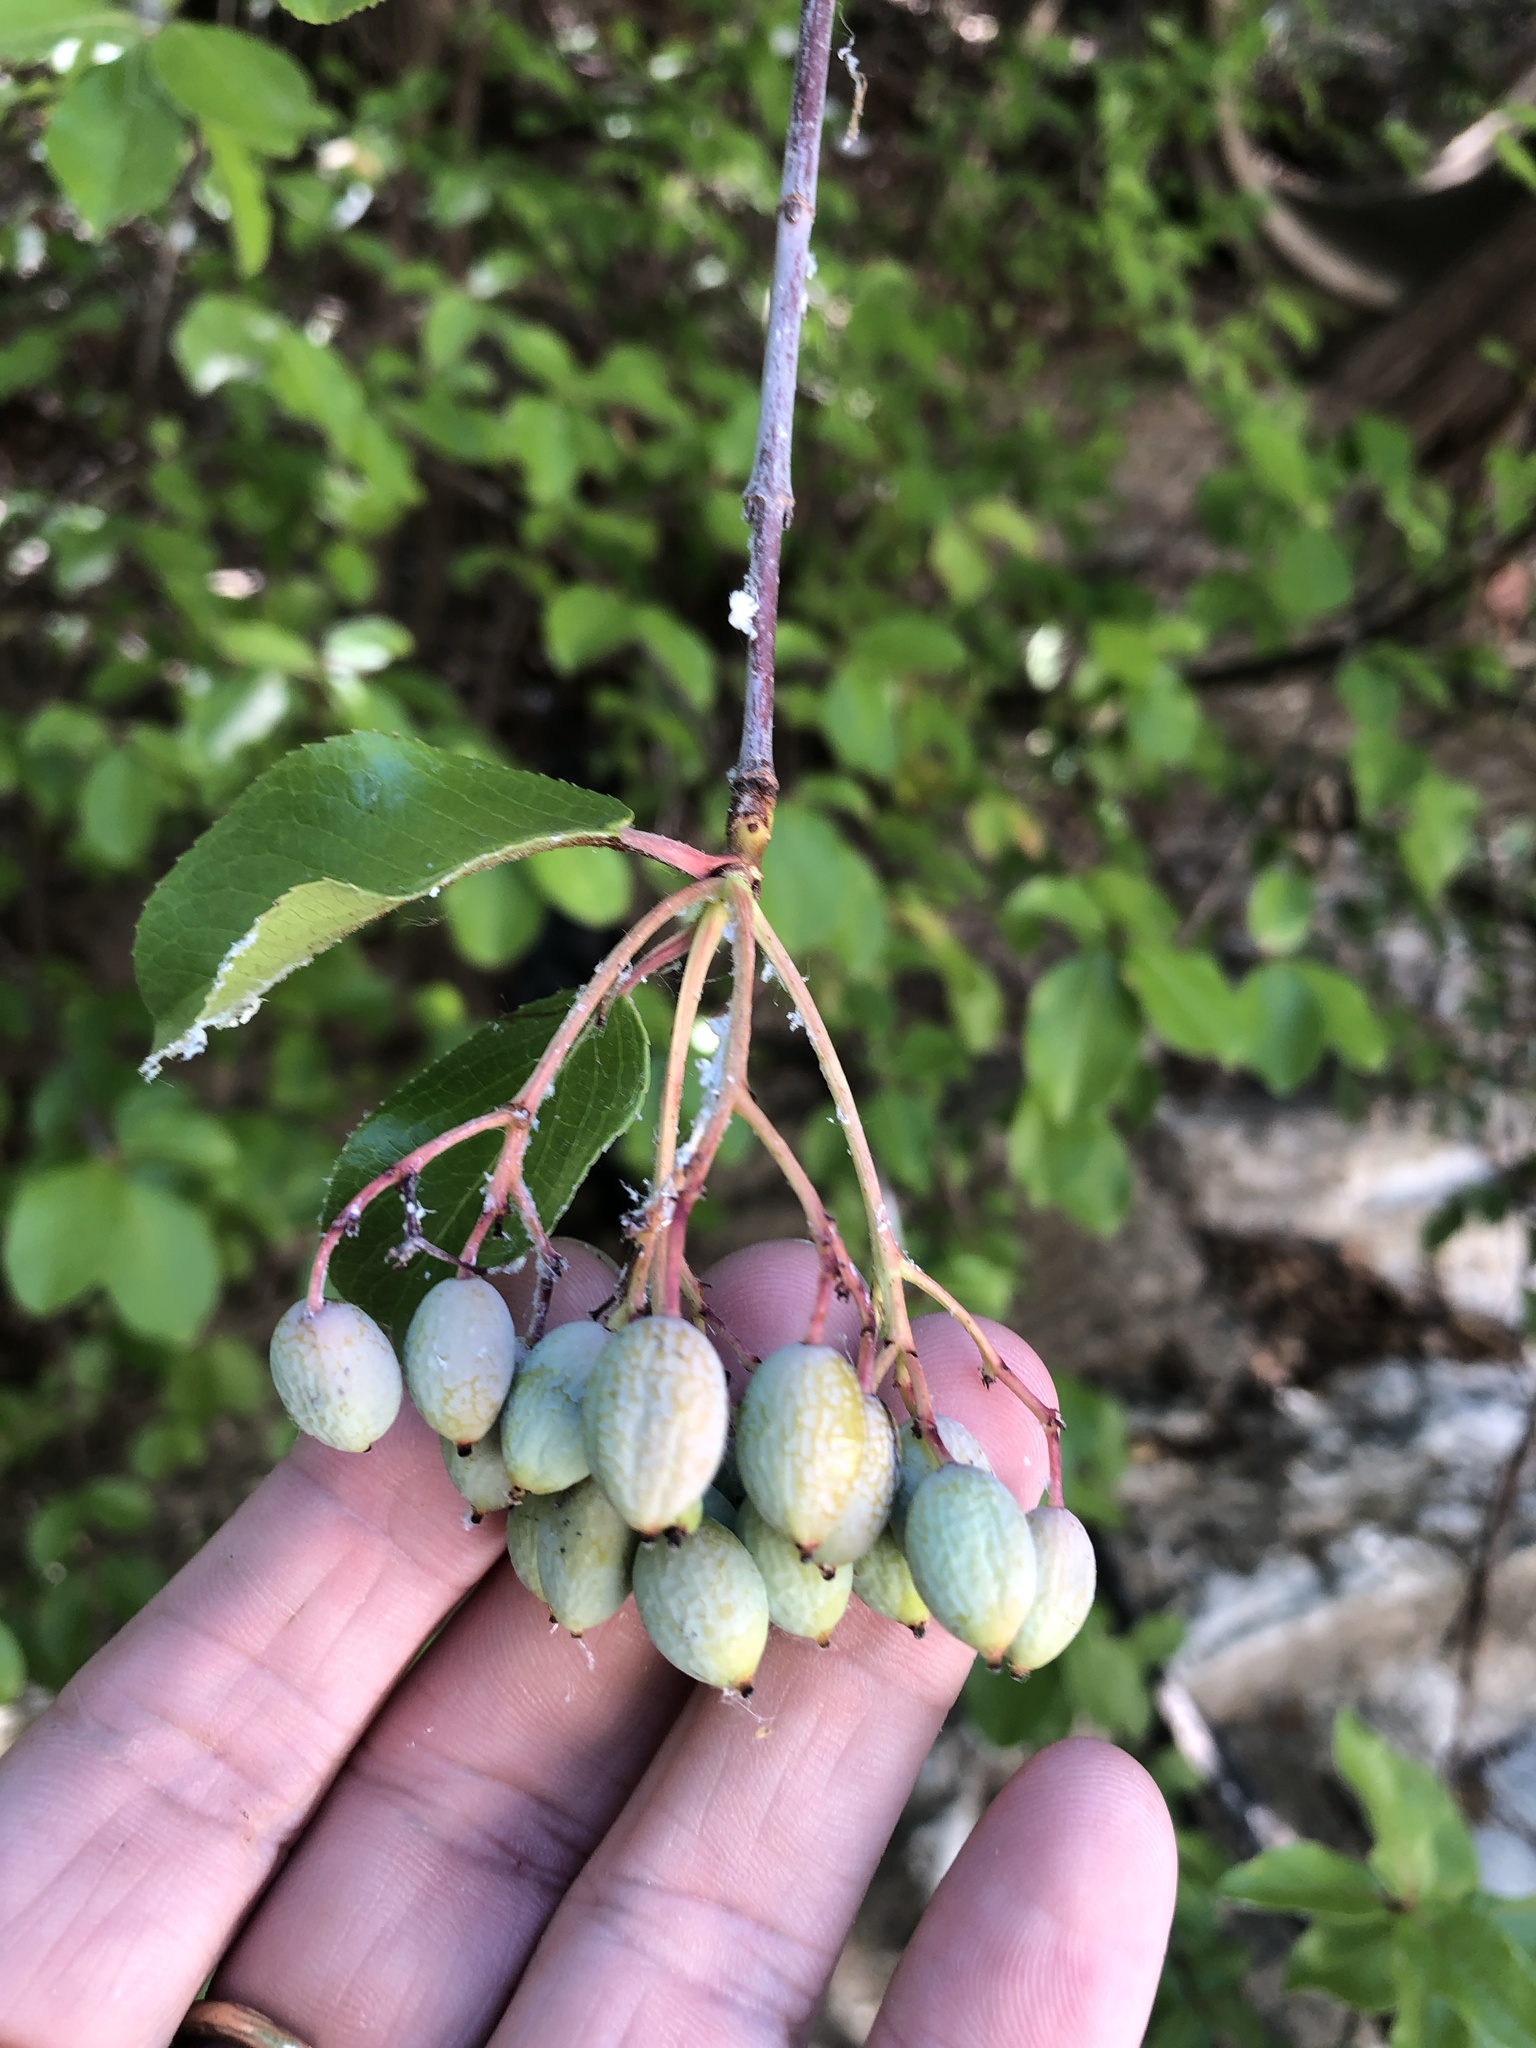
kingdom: Plantae
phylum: Tracheophyta
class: Magnoliopsida
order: Dipsacales
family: Viburnaceae
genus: Viburnum
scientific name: Viburnum rufidulum
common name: Blue haw
